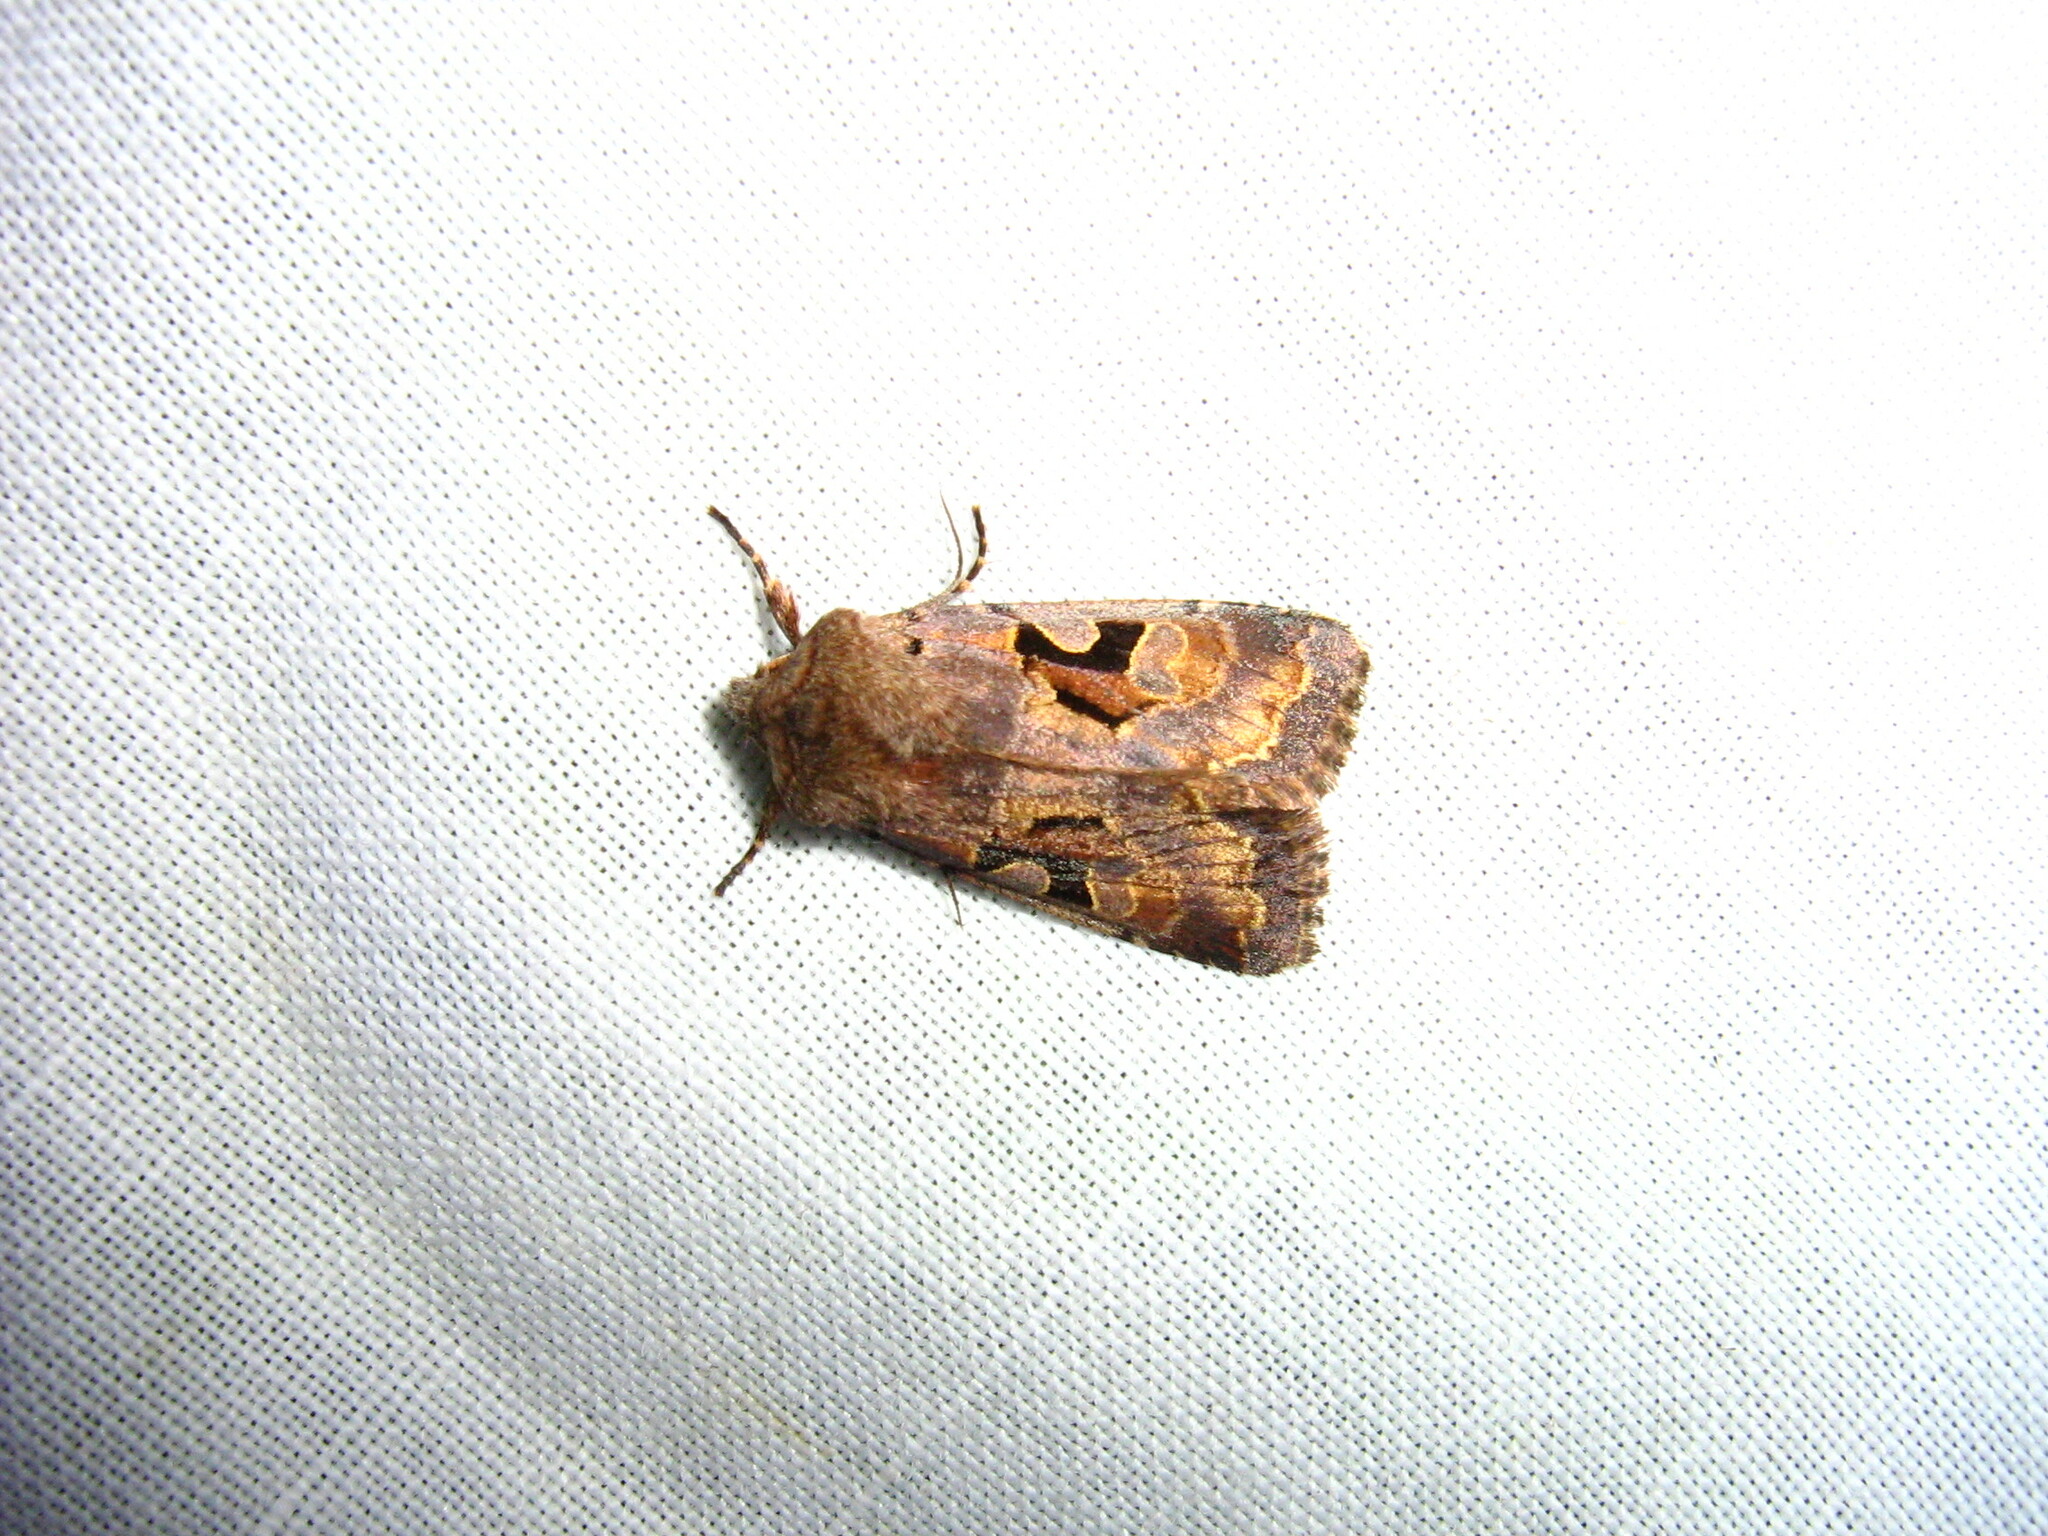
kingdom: Animalia
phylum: Arthropoda
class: Insecta
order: Lepidoptera
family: Noctuidae
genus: Orthosia
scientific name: Orthosia gothica
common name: Hebrew character
